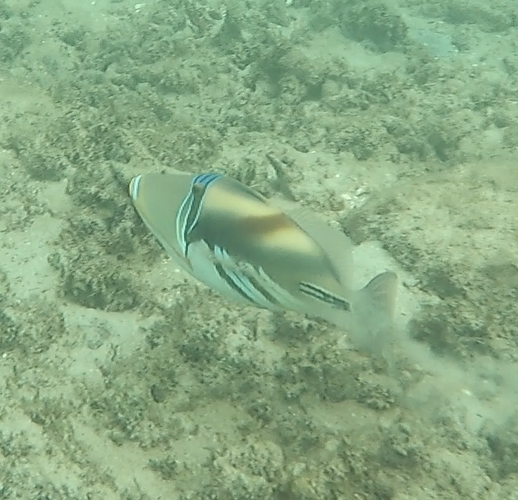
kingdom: Animalia
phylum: Chordata
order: Tetraodontiformes
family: Balistidae
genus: Rhinecanthus
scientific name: Rhinecanthus aculeatus
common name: White-banded triggerfish
